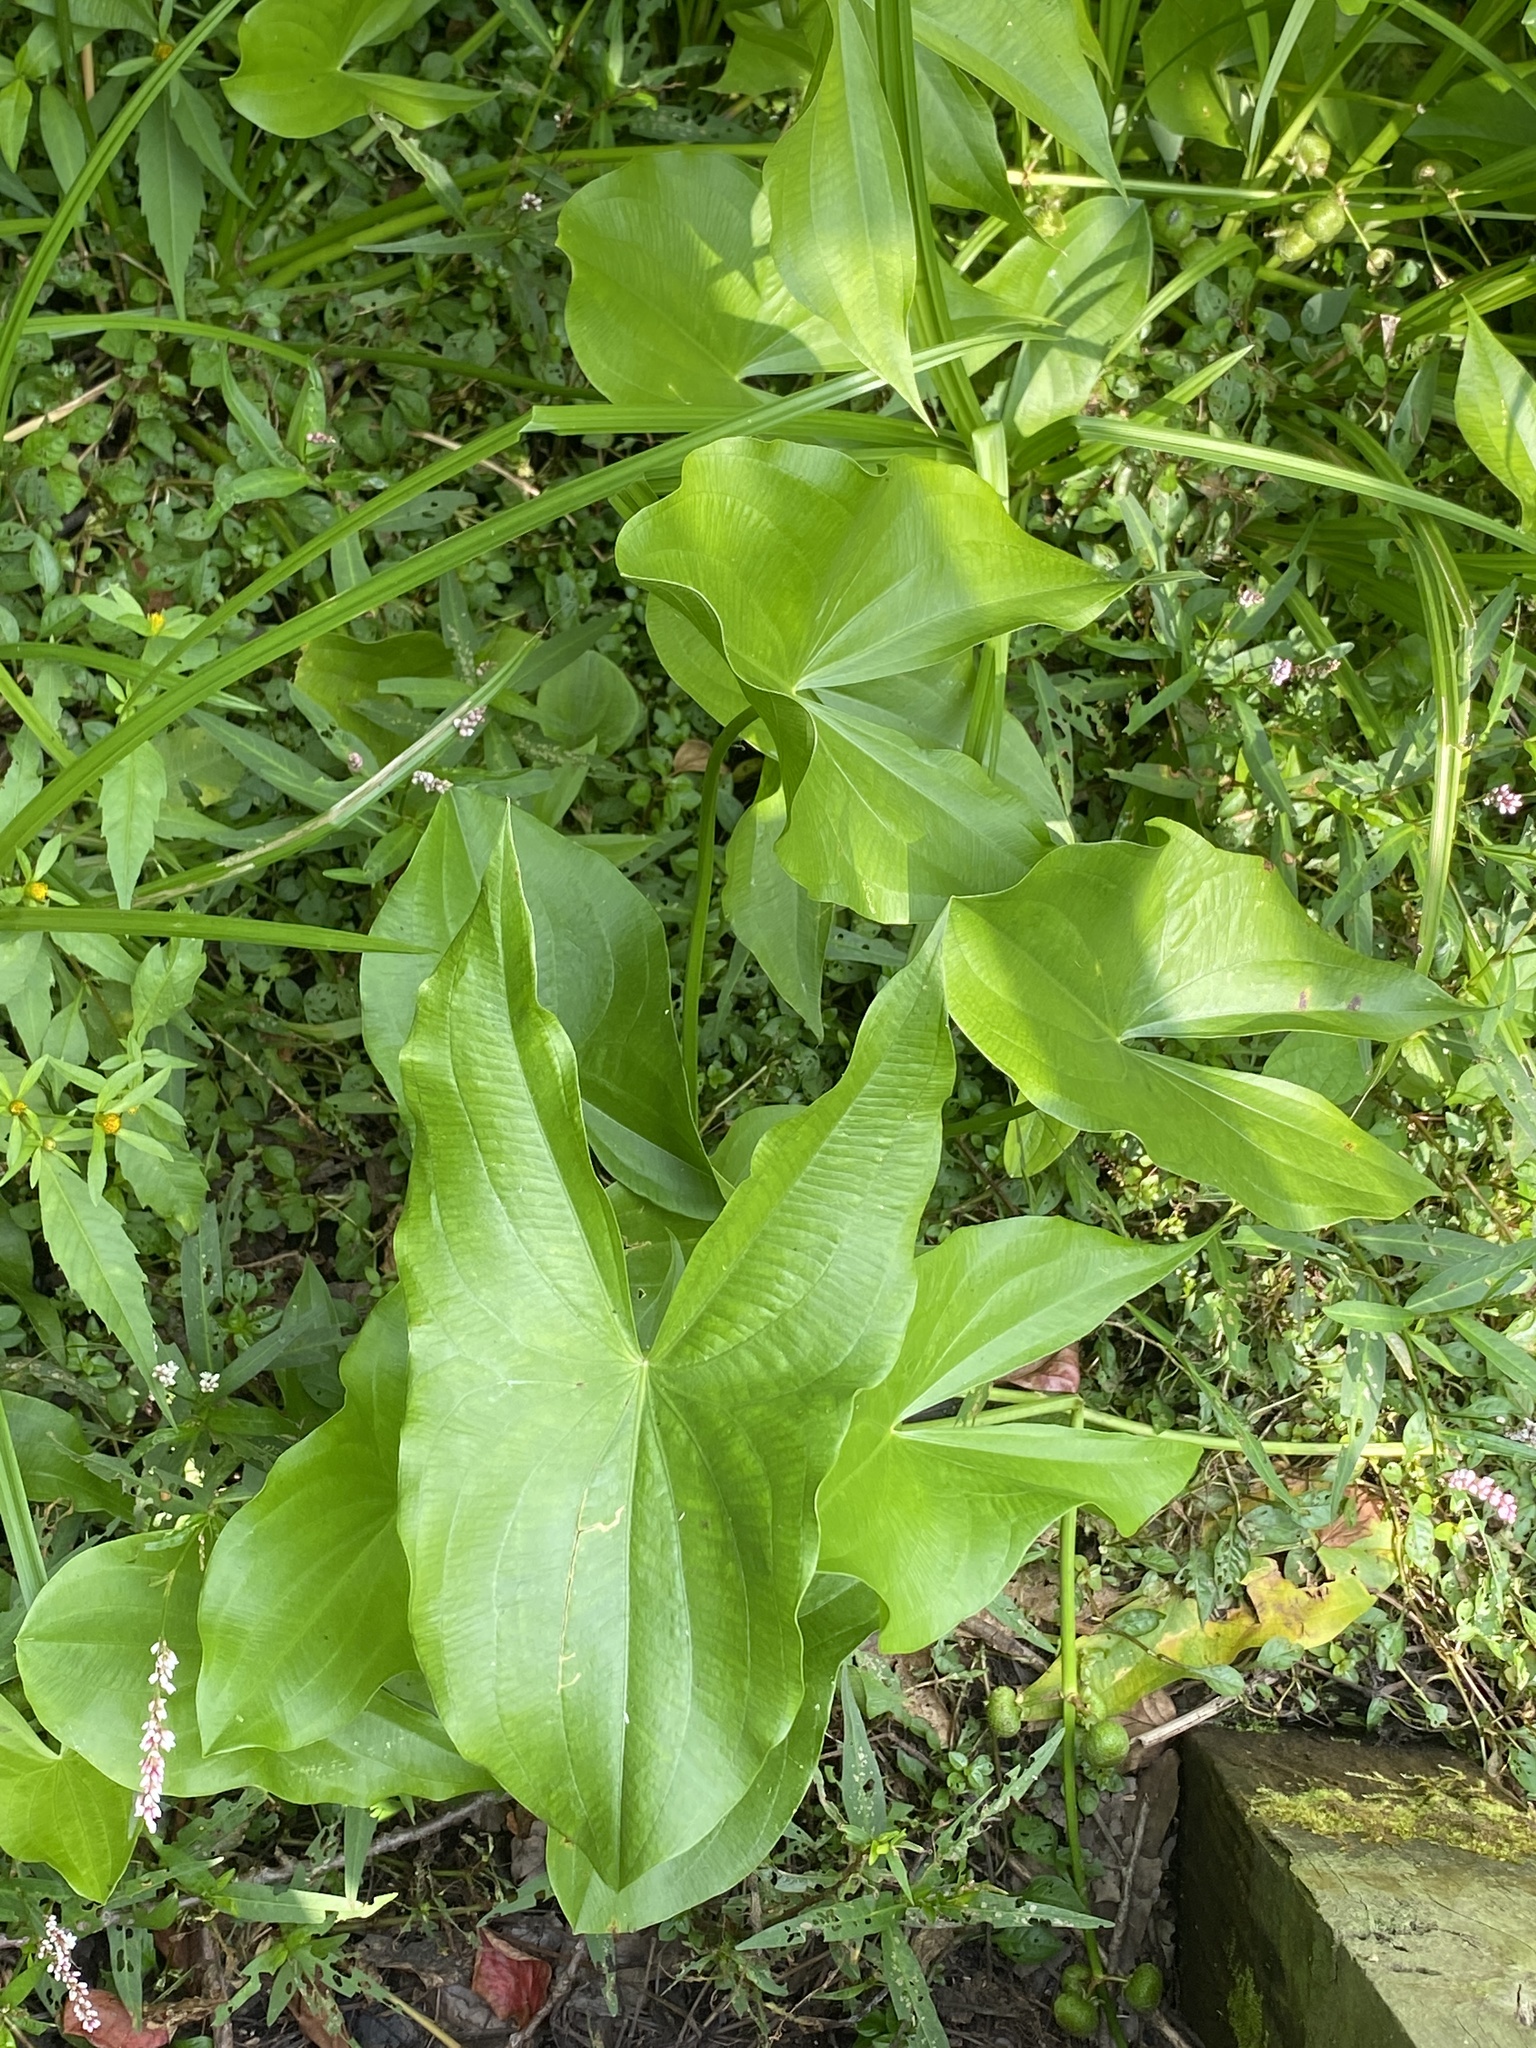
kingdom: Plantae
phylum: Tracheophyta
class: Liliopsida
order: Alismatales
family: Alismataceae
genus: Sagittaria
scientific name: Sagittaria latifolia
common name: Duck-potato
